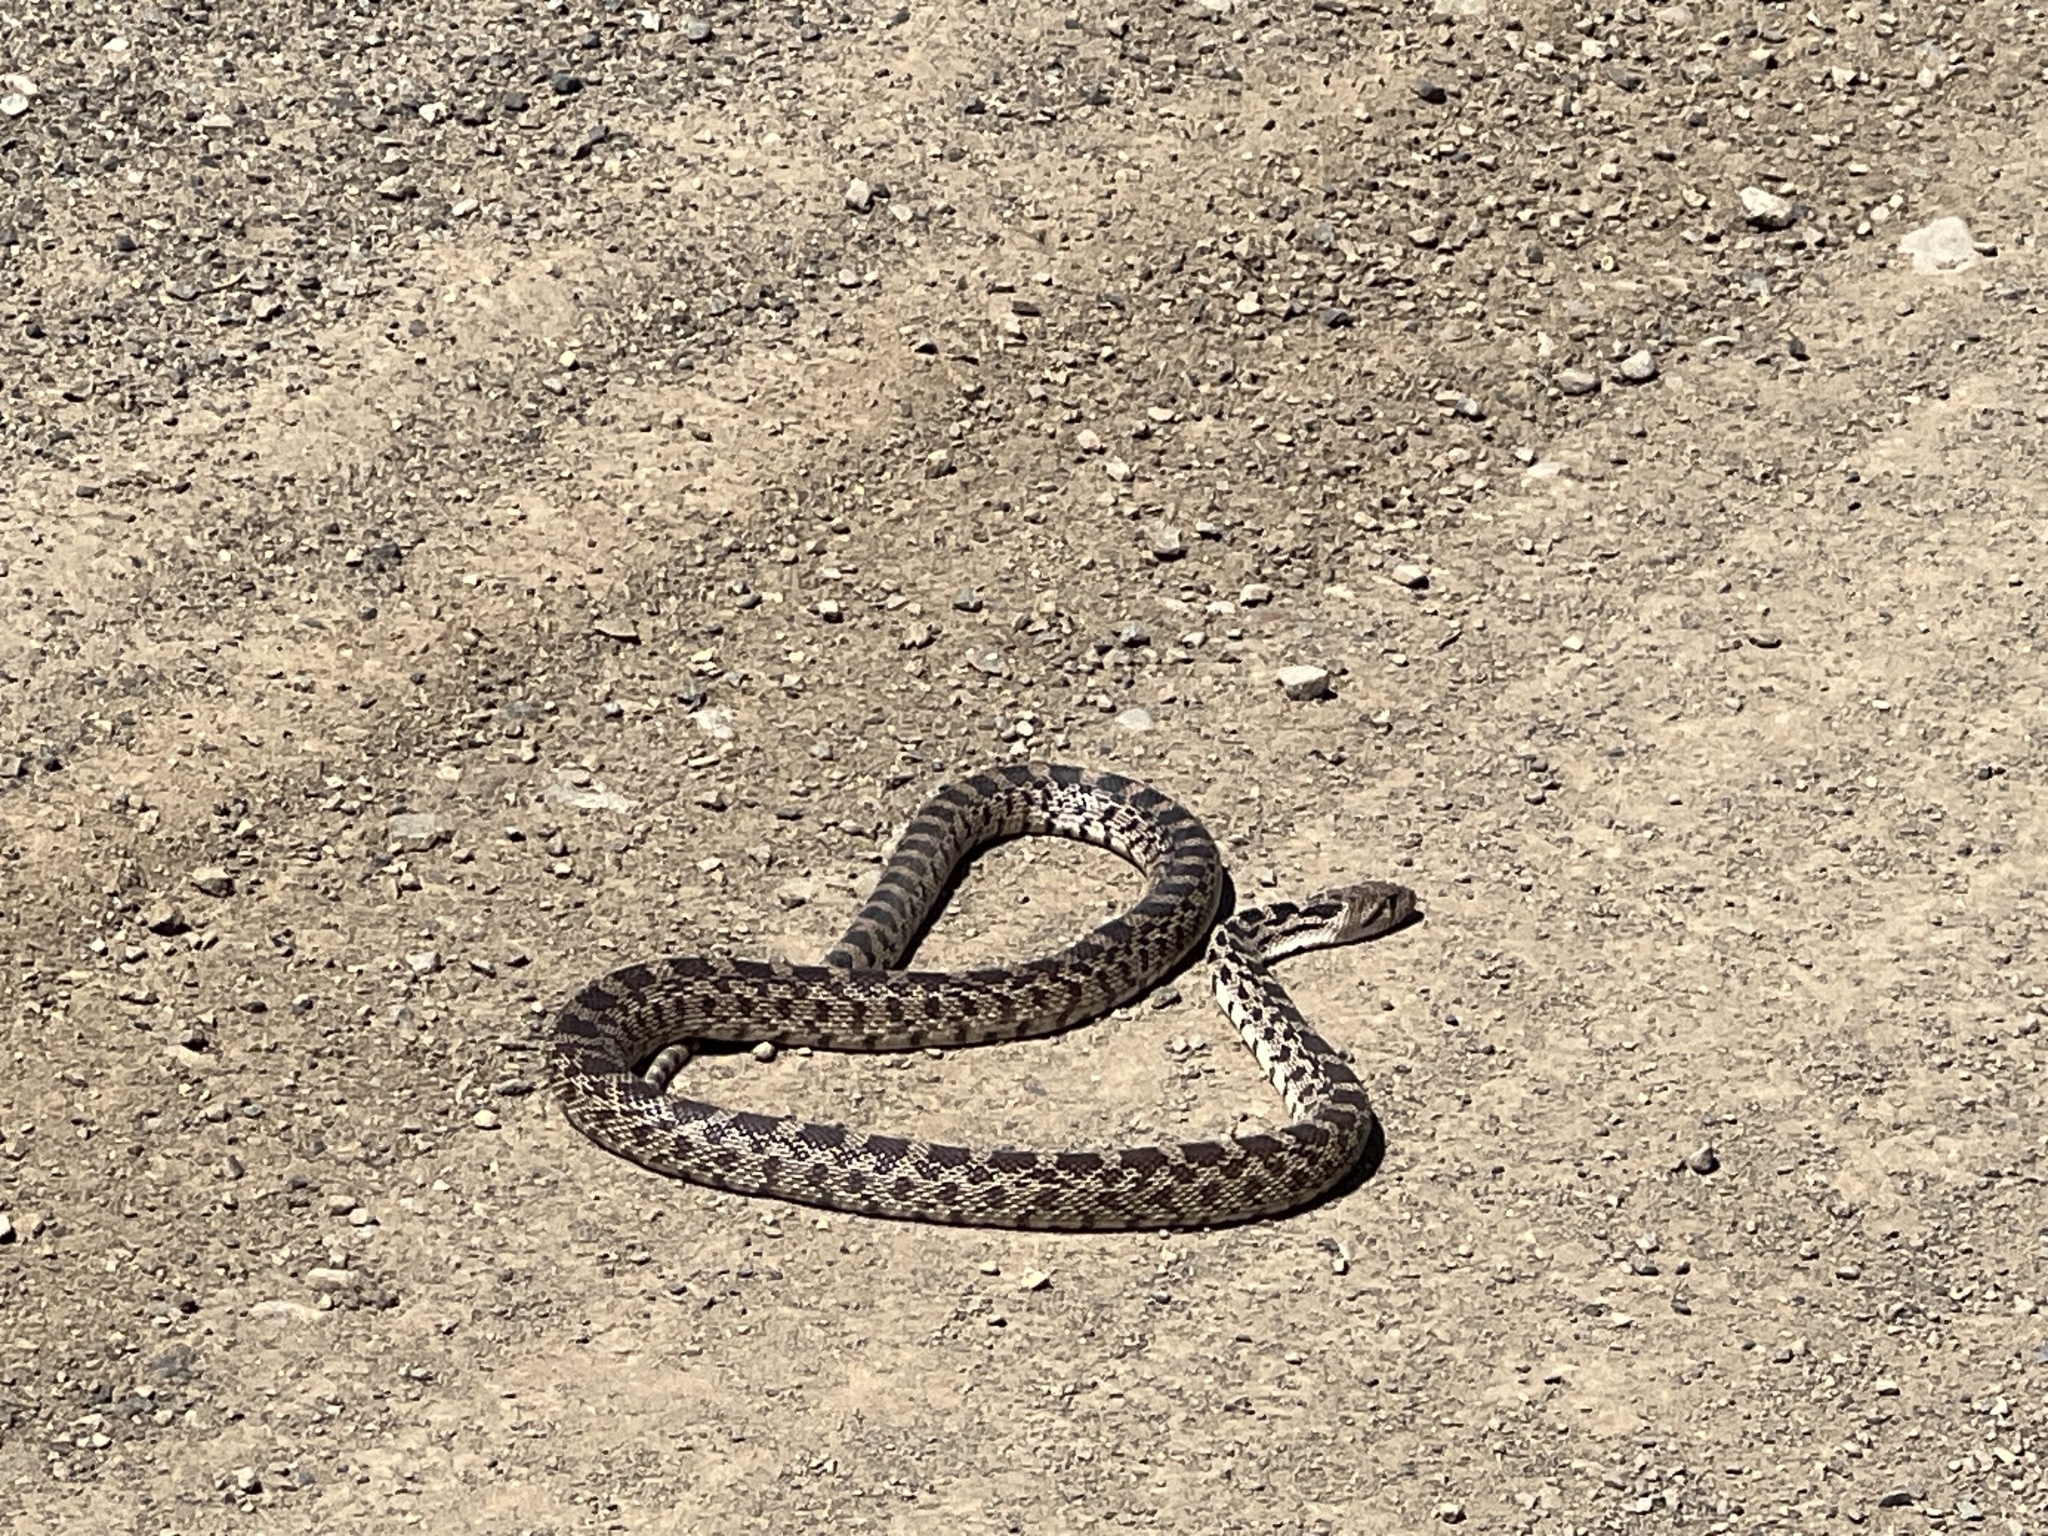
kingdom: Animalia
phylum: Chordata
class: Squamata
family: Colubridae
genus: Pituophis
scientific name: Pituophis catenifer
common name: Gopher snake
